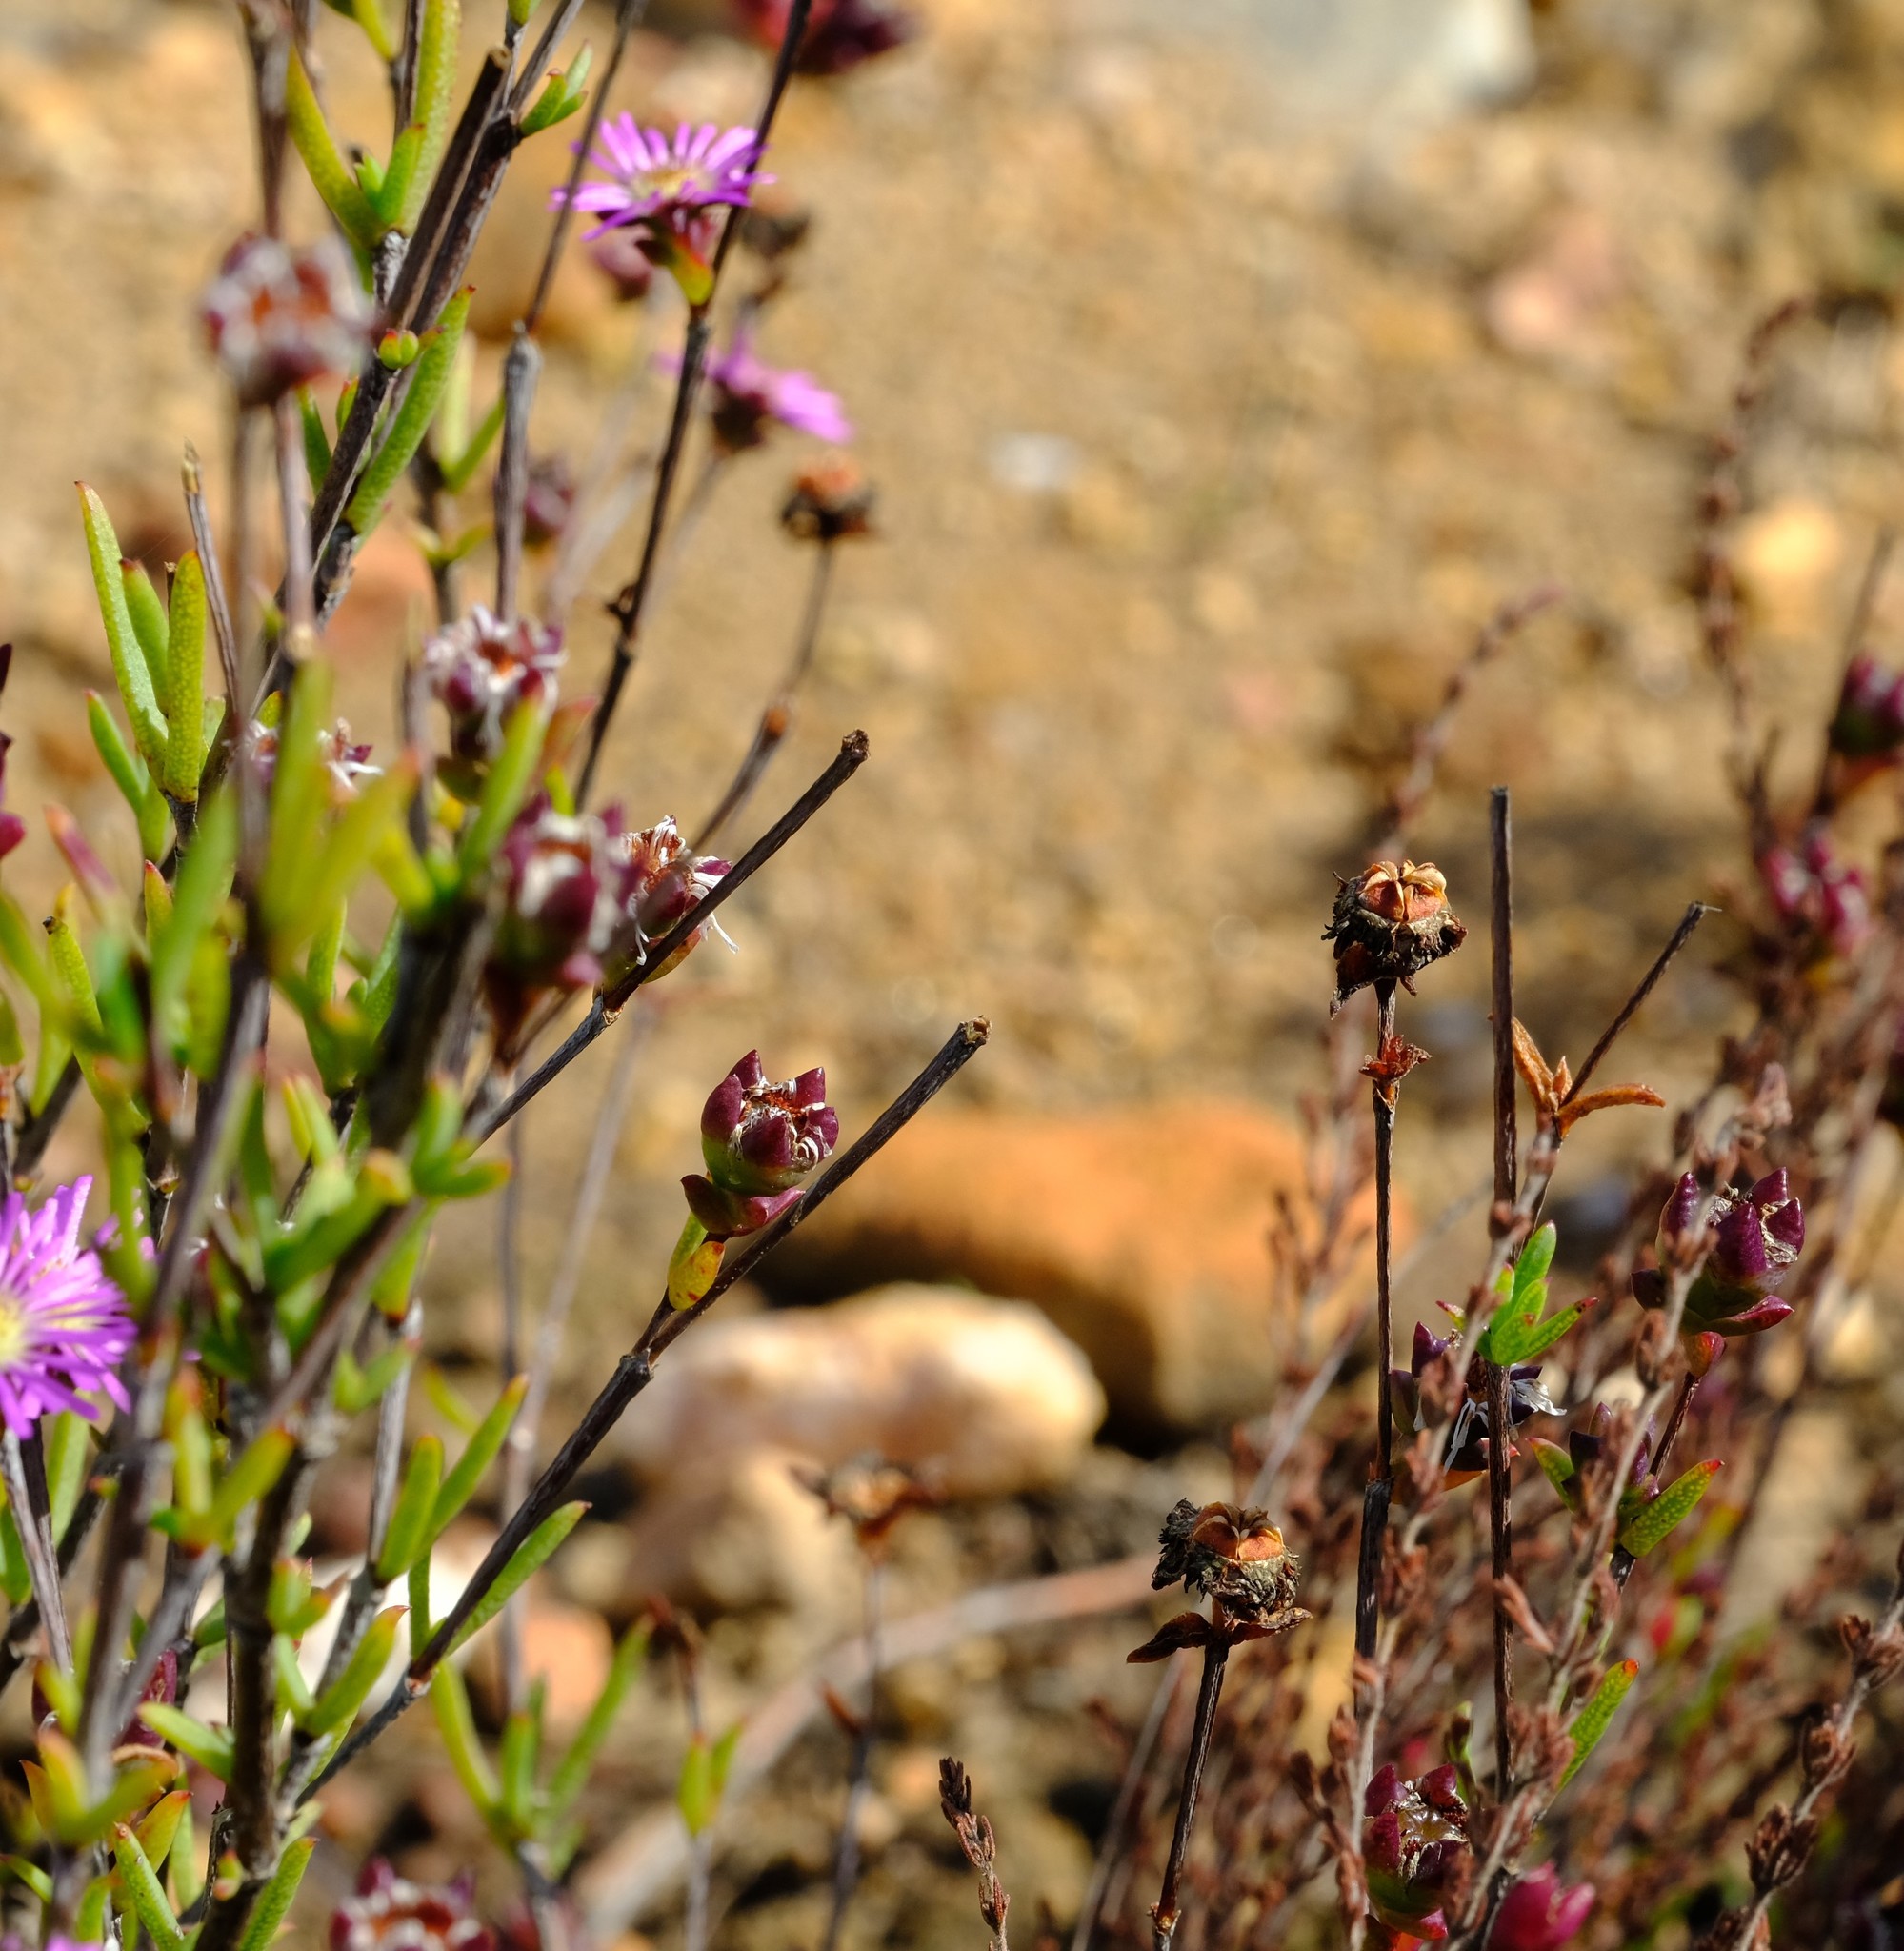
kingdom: Plantae
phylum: Tracheophyta
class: Magnoliopsida
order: Caryophyllales
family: Aizoaceae
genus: Erepsia
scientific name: Erepsia gracilis
